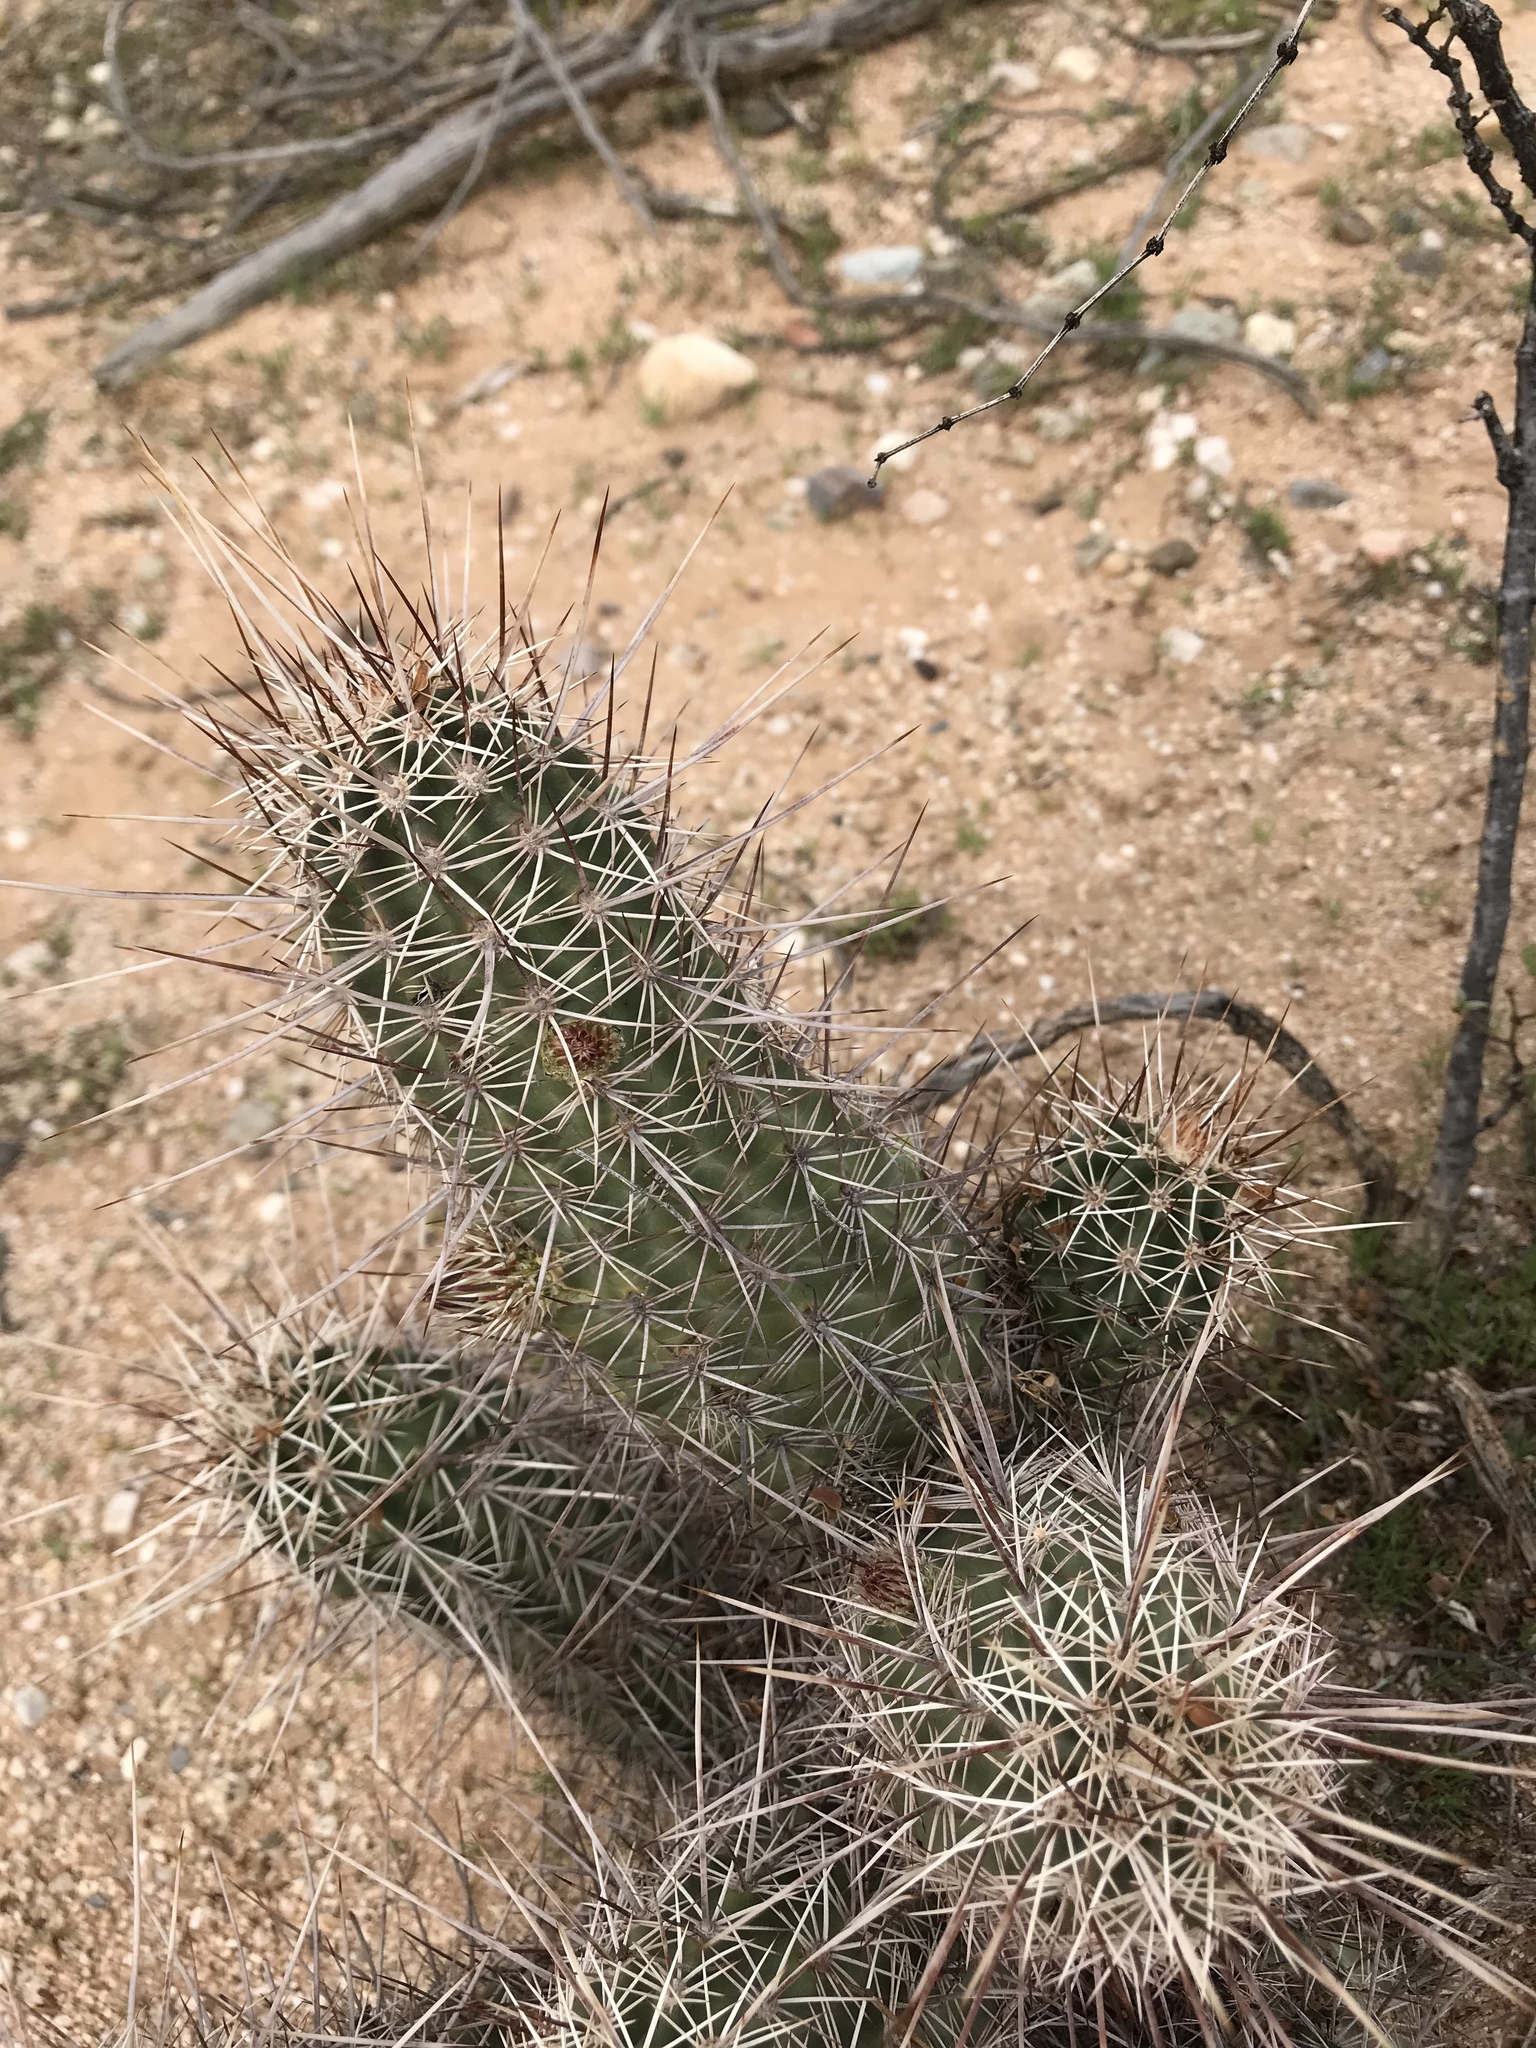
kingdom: Plantae
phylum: Tracheophyta
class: Magnoliopsida
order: Caryophyllales
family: Cactaceae
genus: Echinocereus
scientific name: Echinocereus fasciculatus
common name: Bundle hedgehog
